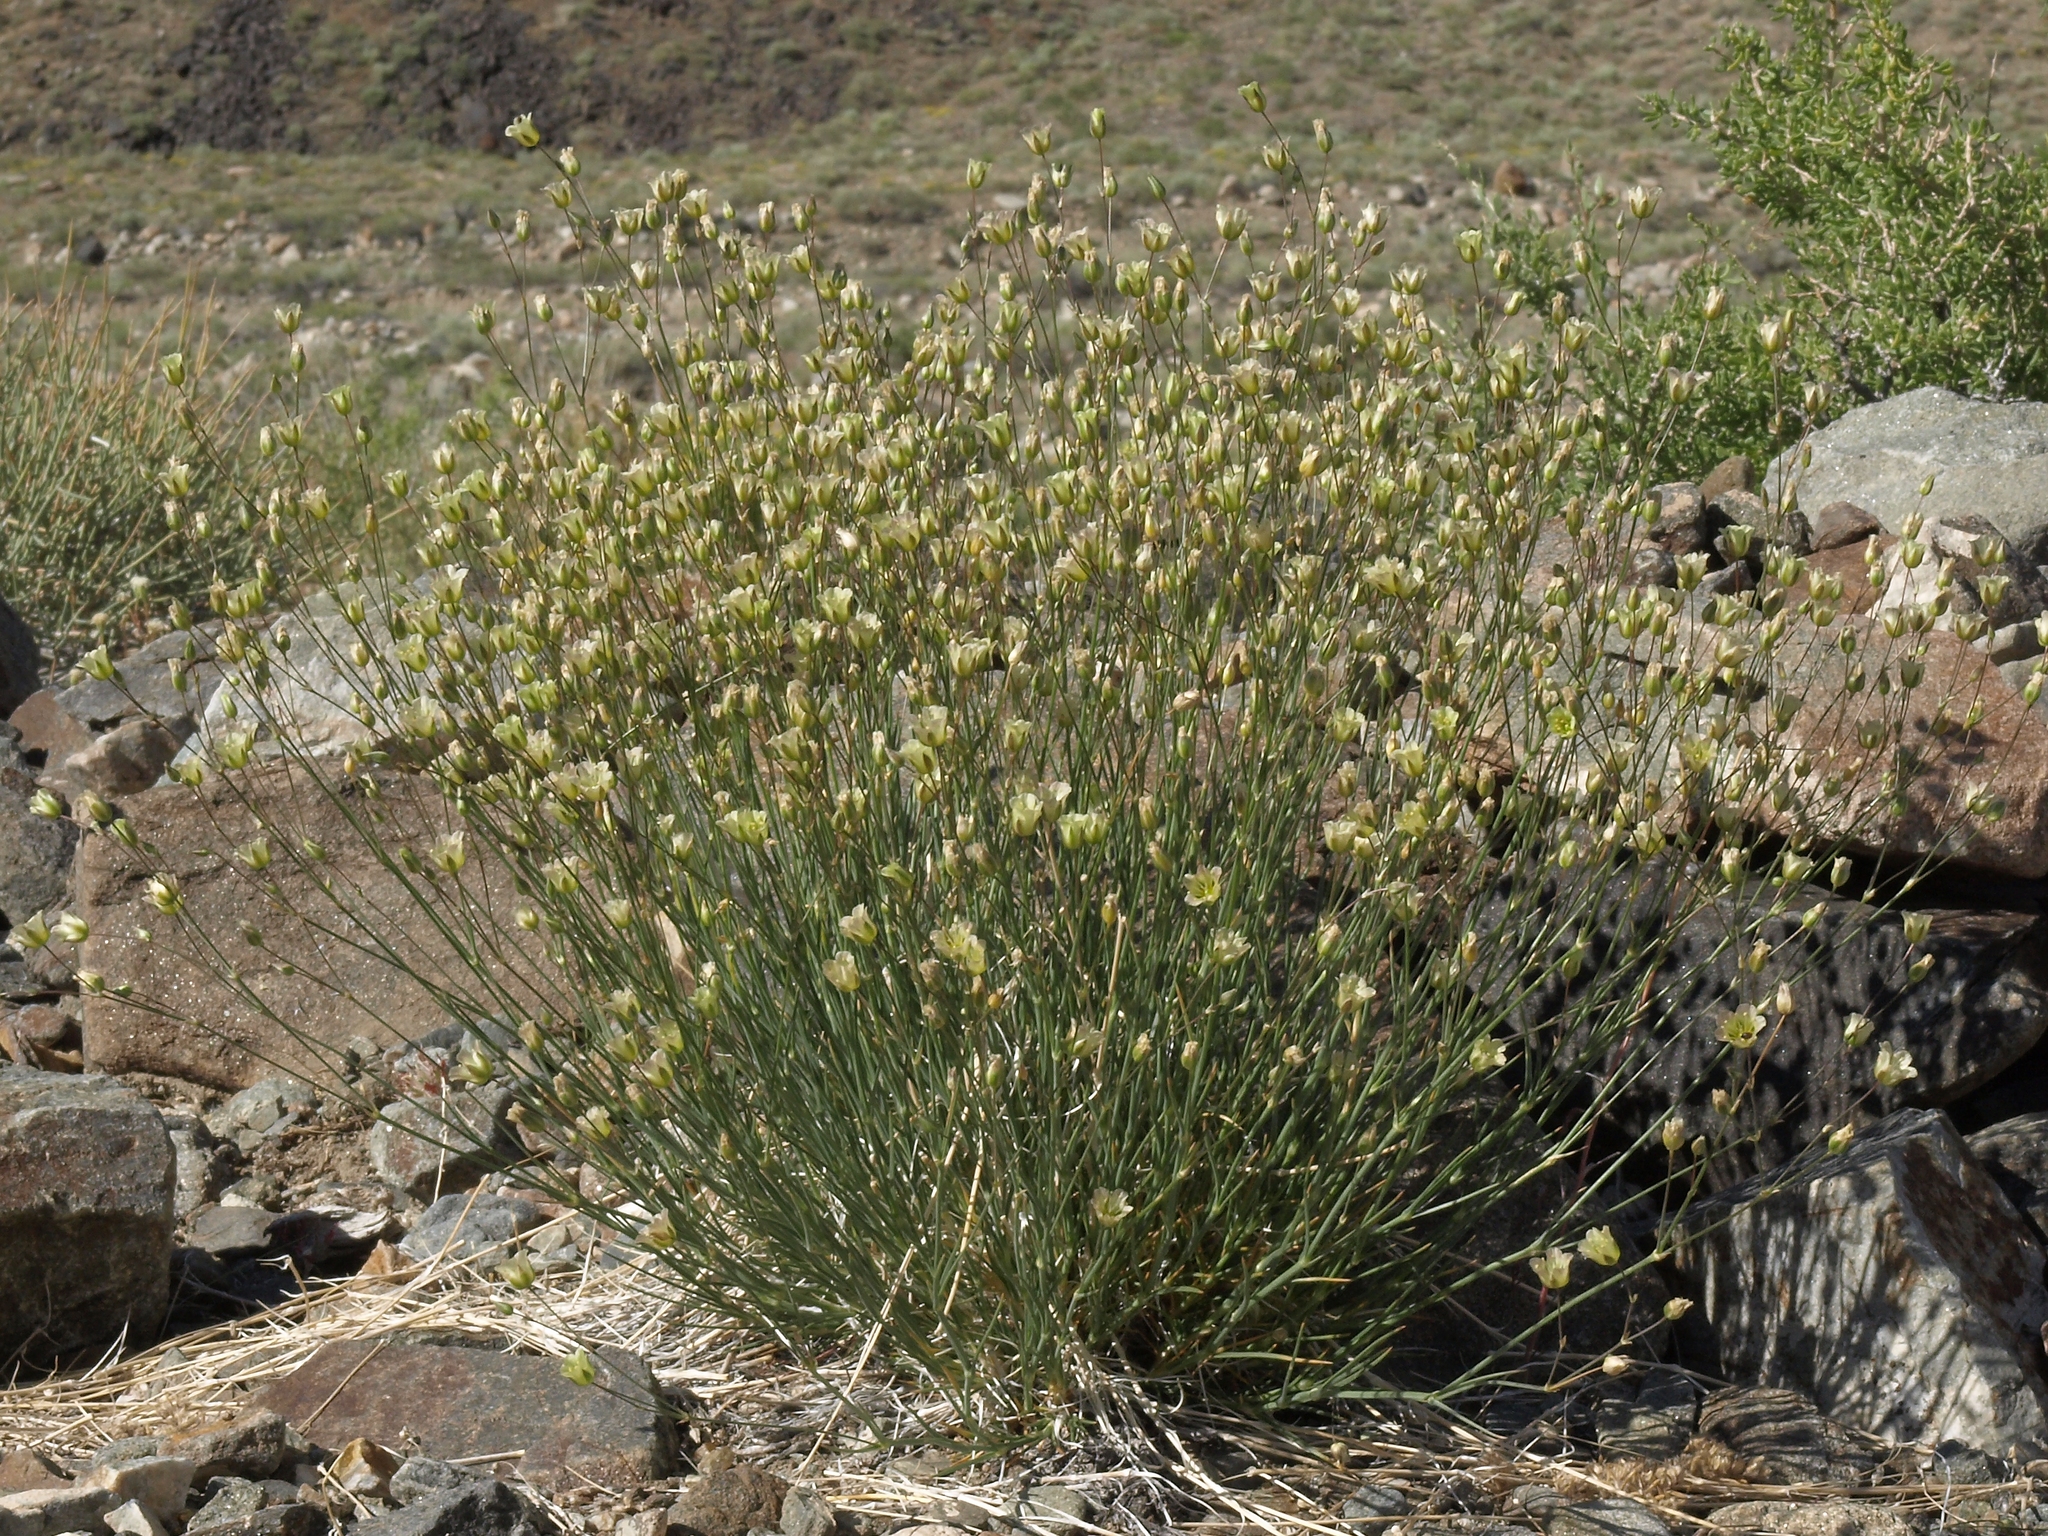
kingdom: Plantae
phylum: Tracheophyta
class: Magnoliopsida
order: Caryophyllales
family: Caryophyllaceae
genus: Eremogone
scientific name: Eremogone macradenia
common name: Mohave sandwort
